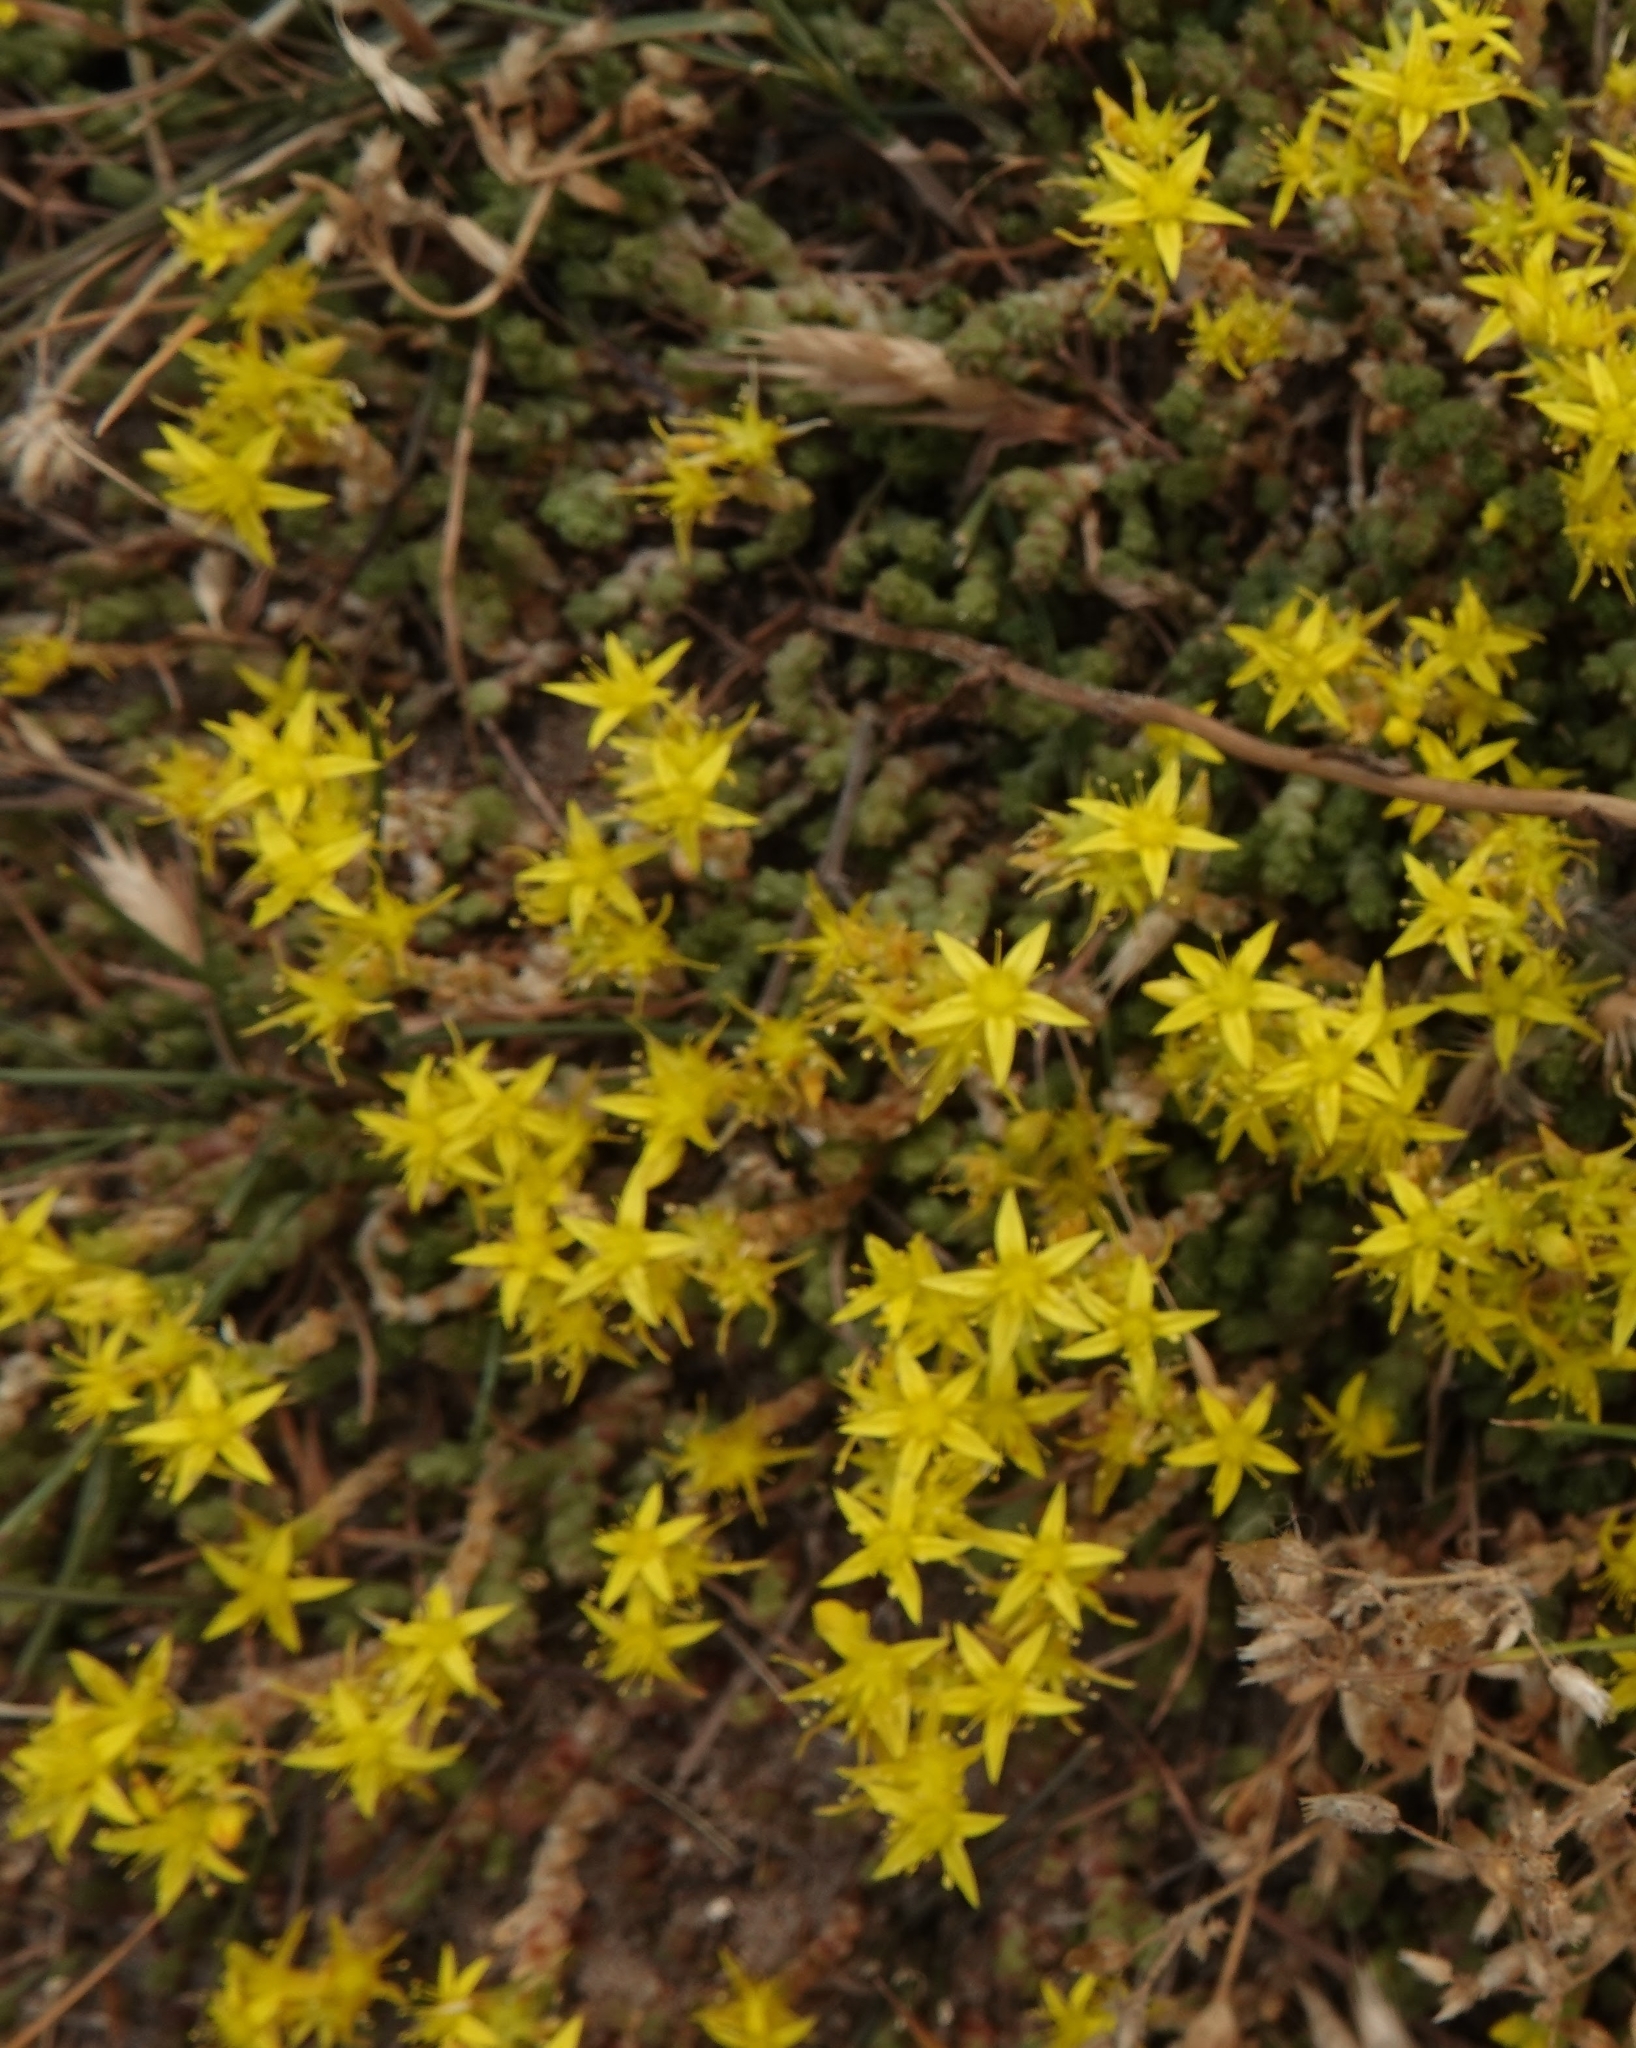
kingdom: Plantae
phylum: Tracheophyta
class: Magnoliopsida
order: Saxifragales
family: Crassulaceae
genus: Sedum
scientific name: Sedum acre
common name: Biting stonecrop
